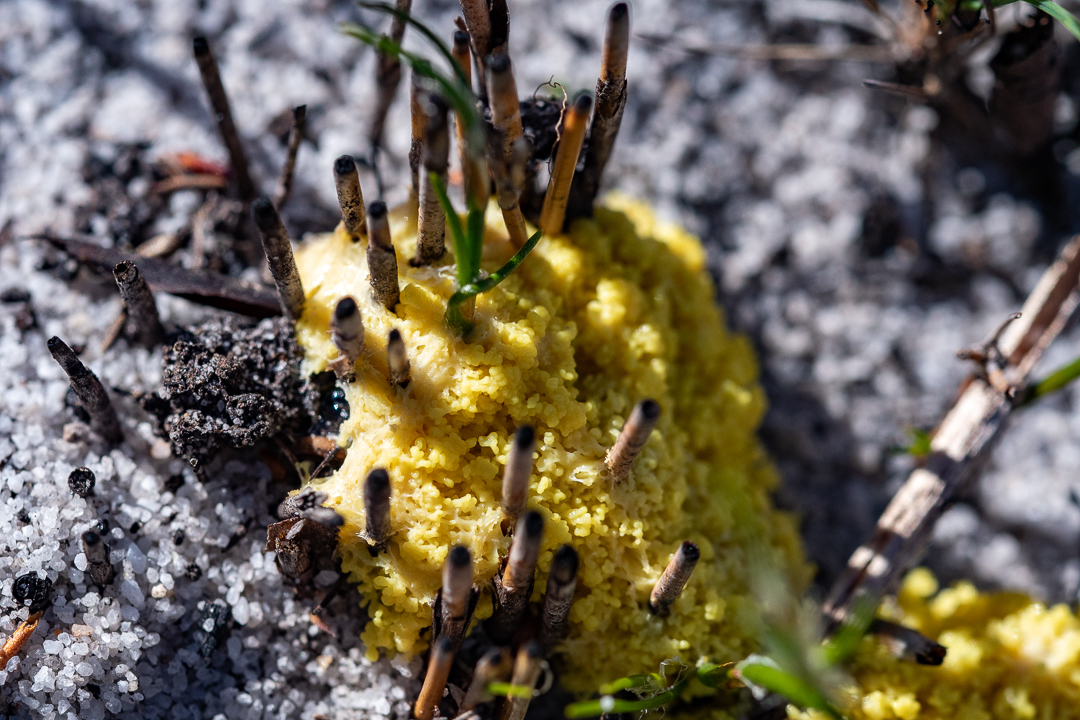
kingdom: Protozoa
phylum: Mycetozoa
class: Myxomycetes
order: Physarales
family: Physaraceae
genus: Fuligo
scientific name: Fuligo septica
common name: Dog vomit slime mold
